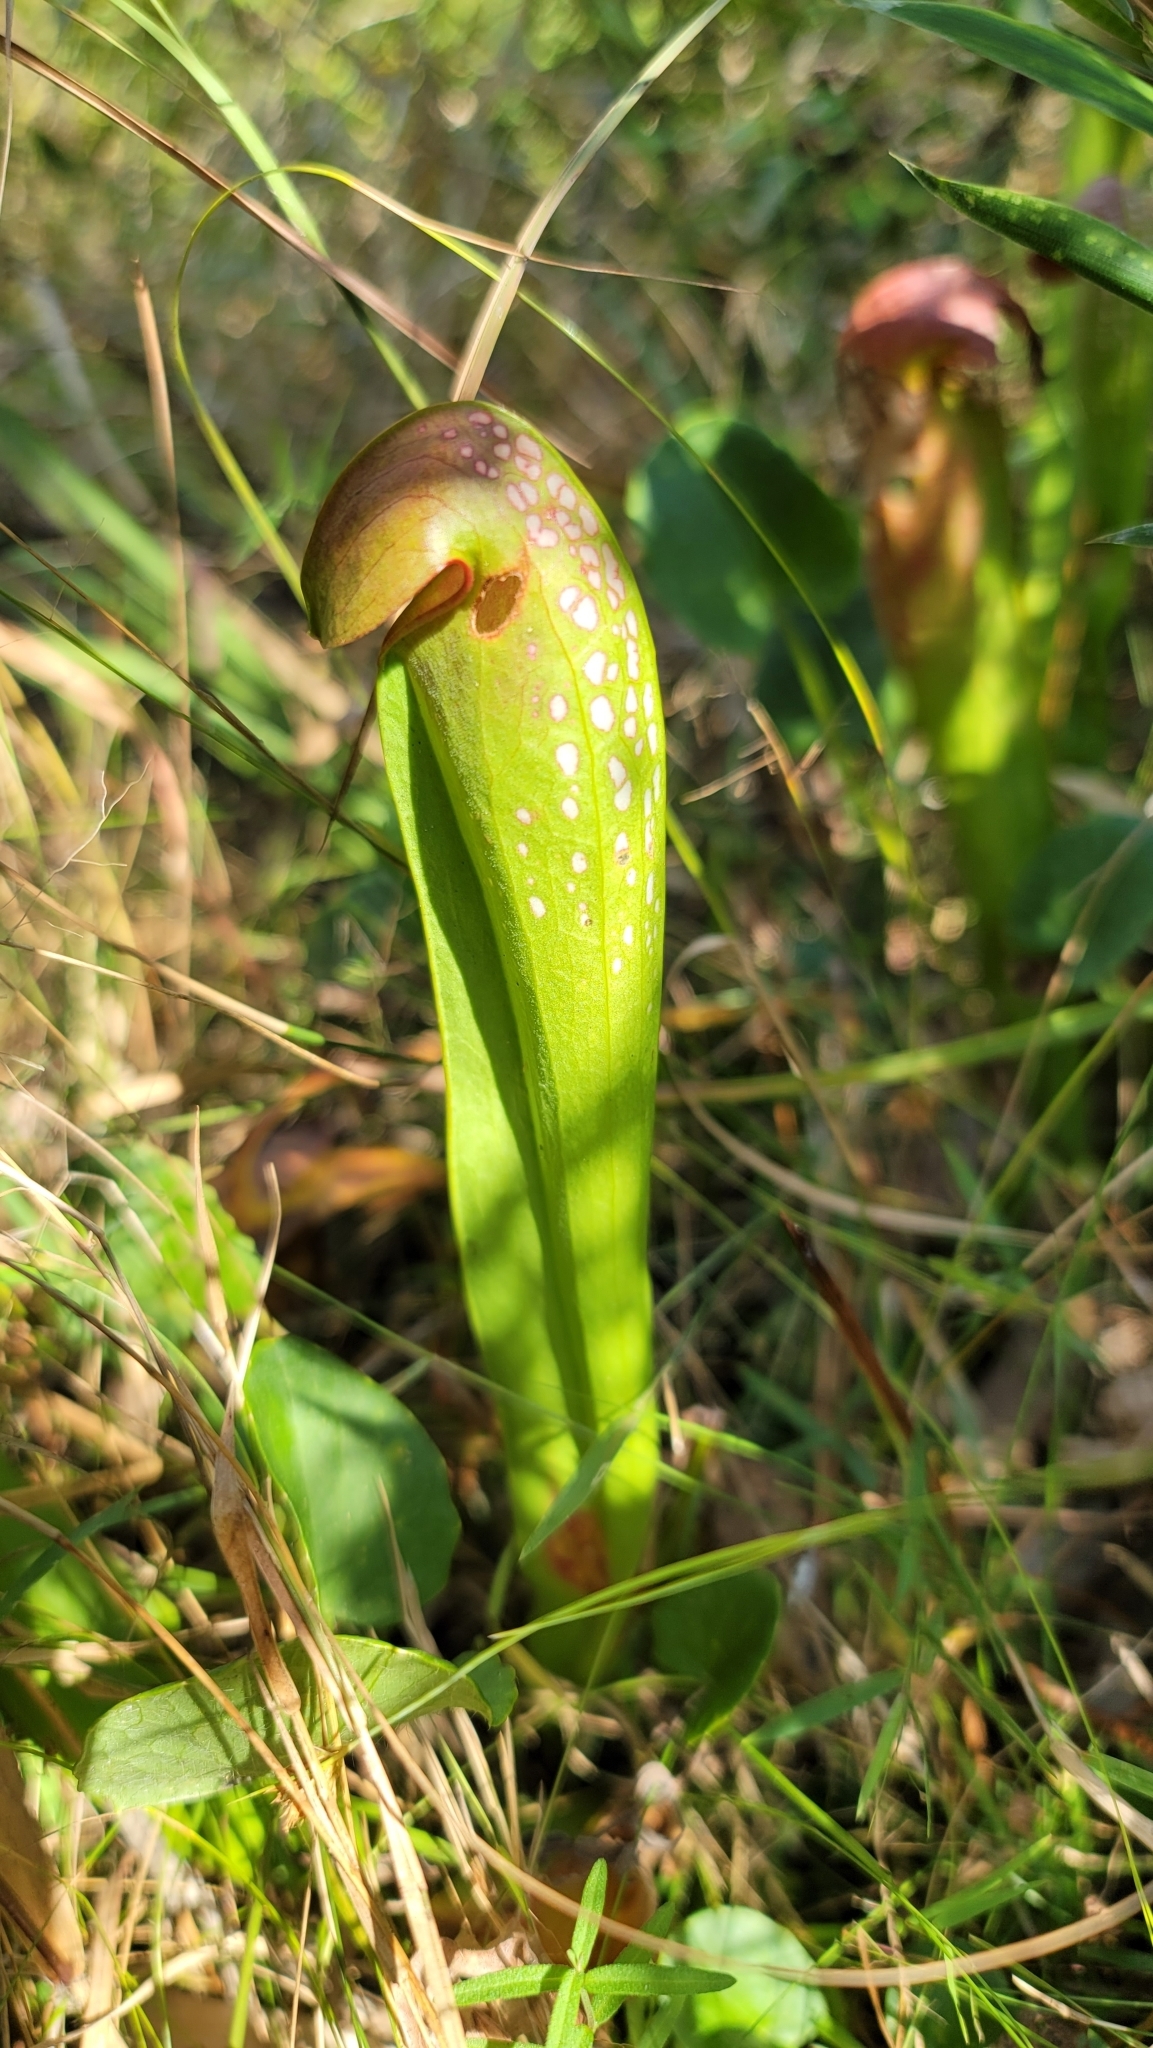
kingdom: Plantae
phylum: Tracheophyta
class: Magnoliopsida
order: Ericales
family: Sarraceniaceae
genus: Sarracenia
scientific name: Sarracenia minor
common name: Rainhat-trumpet
